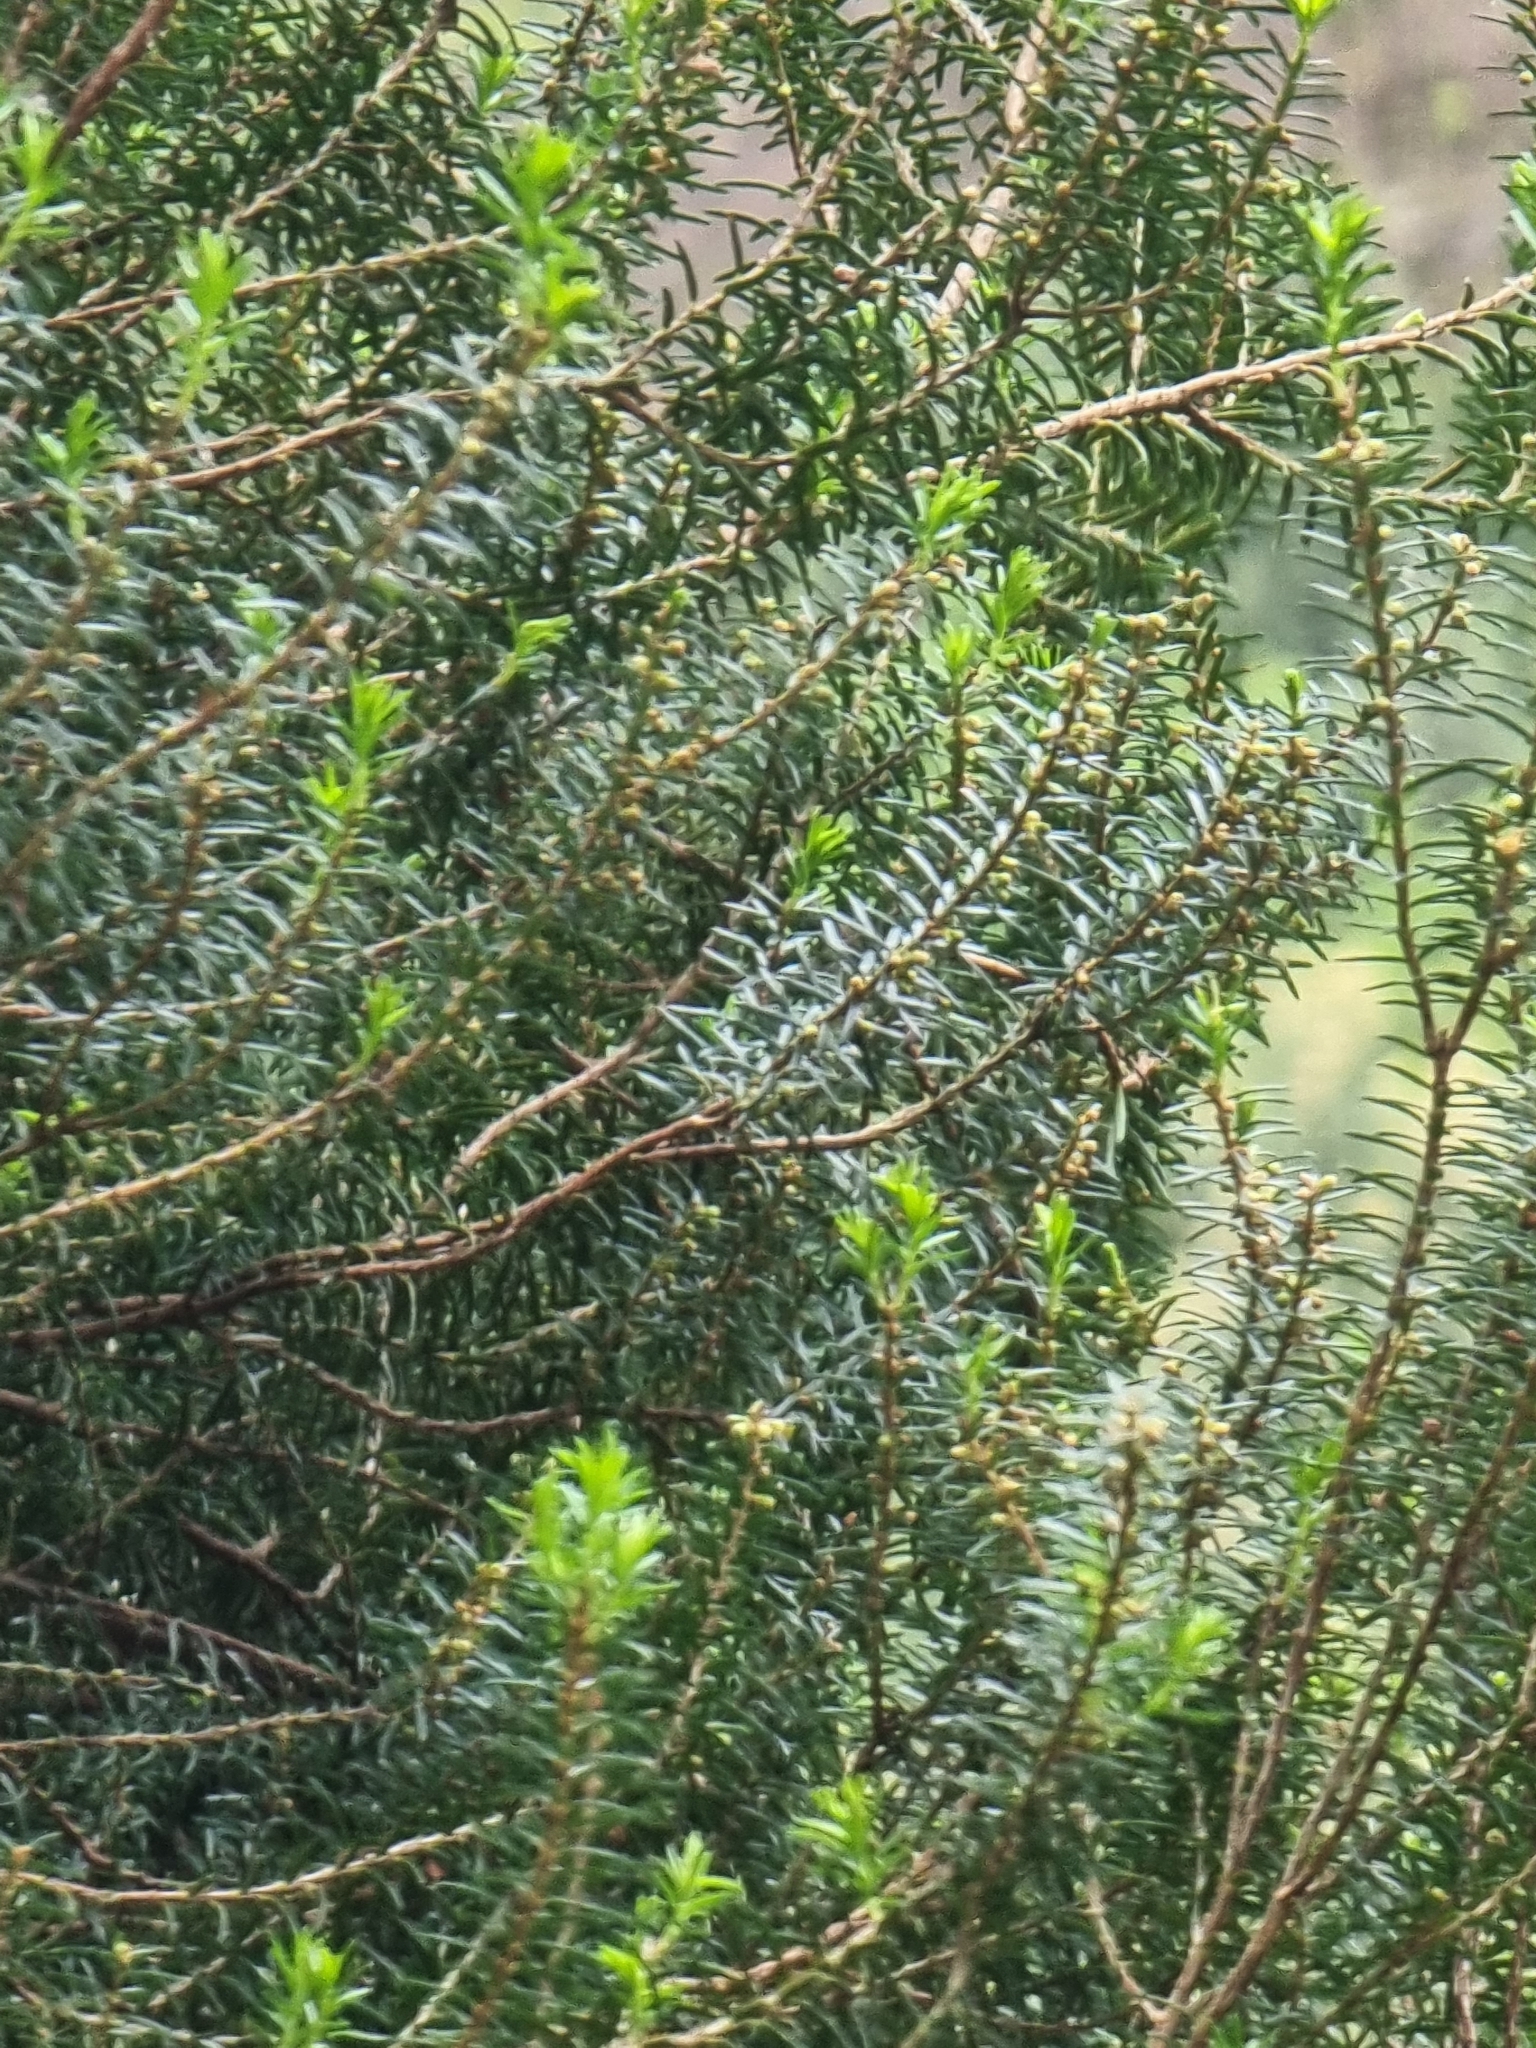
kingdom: Plantae
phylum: Tracheophyta
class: Magnoliopsida
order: Ericales
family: Ericaceae
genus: Erica
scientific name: Erica platycodon
